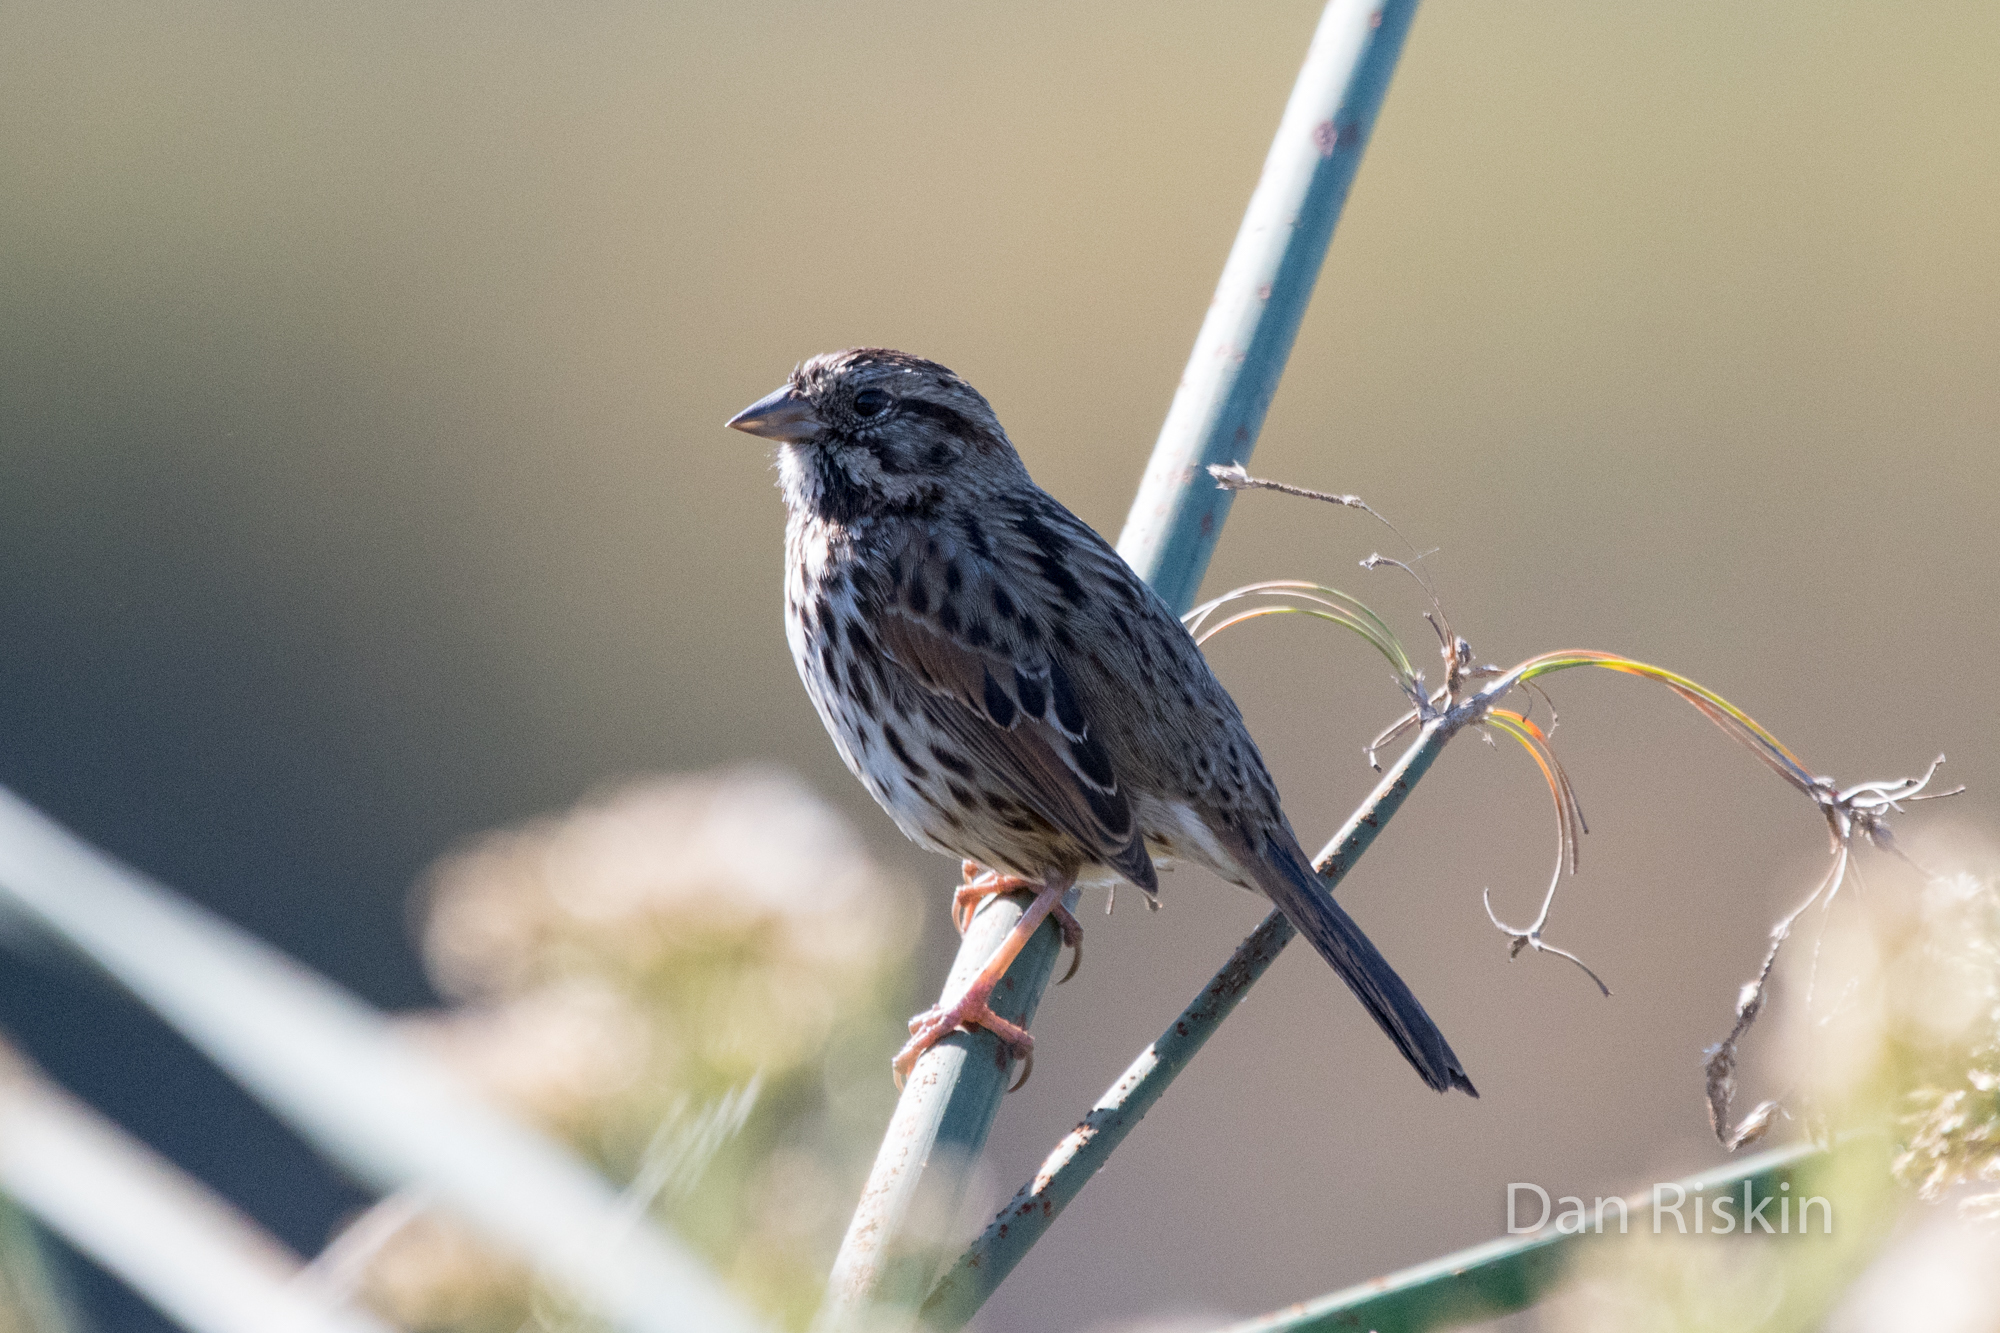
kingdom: Animalia
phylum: Chordata
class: Aves
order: Passeriformes
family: Passerellidae
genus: Melospiza
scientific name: Melospiza melodia
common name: Song sparrow
